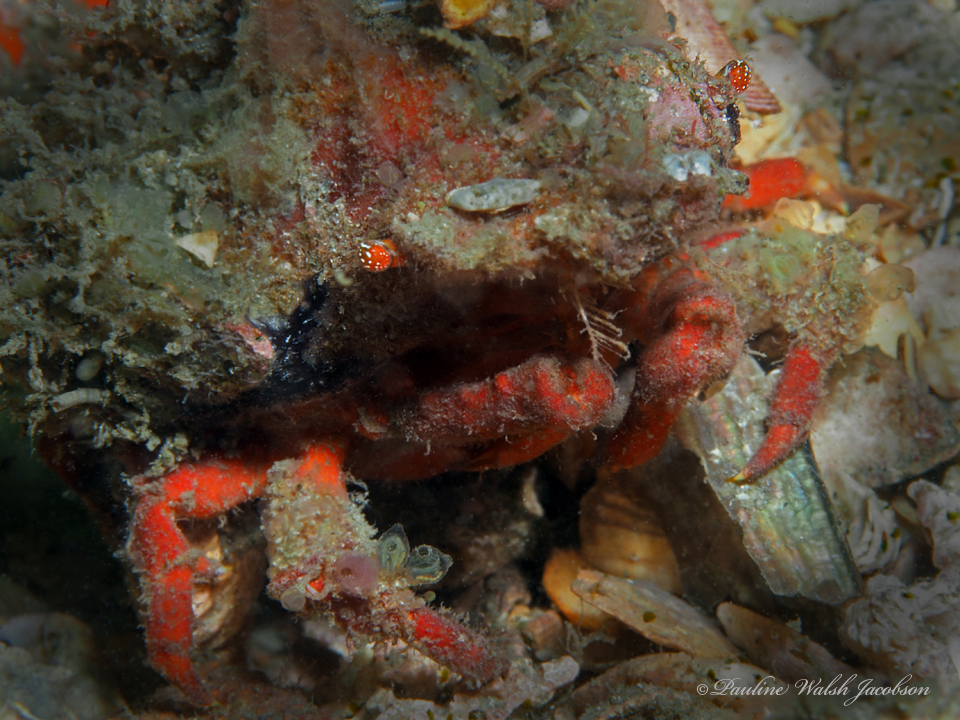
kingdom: Animalia
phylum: Arthropoda
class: Malacostraca
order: Decapoda
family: Epialtidae
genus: Macrocoeloma
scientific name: Macrocoeloma trispinosum
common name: Grass crab
